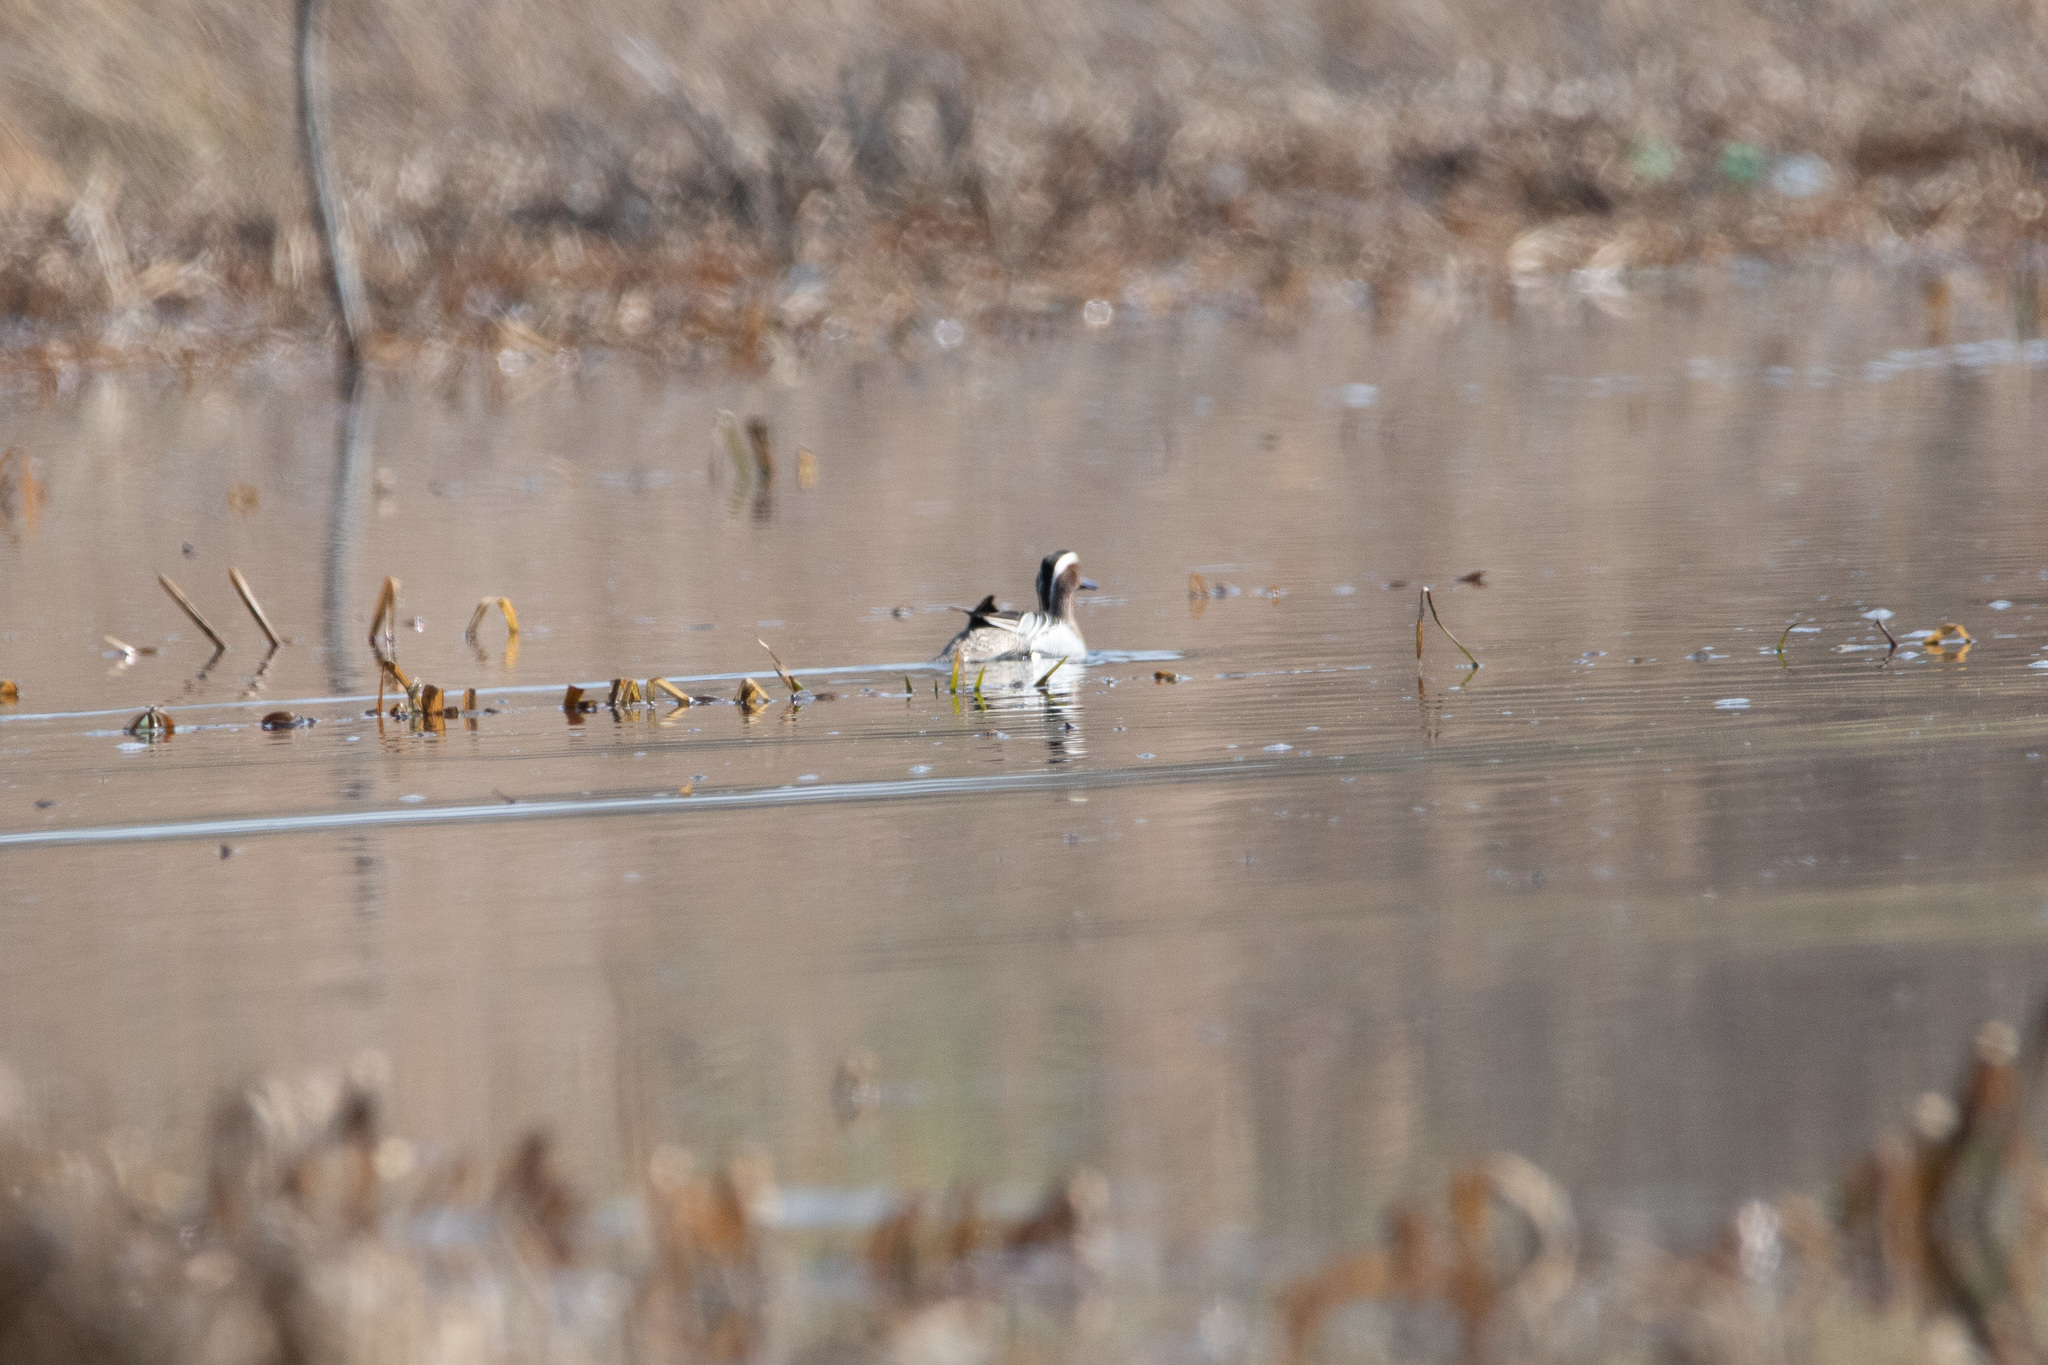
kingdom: Animalia
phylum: Chordata
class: Aves
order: Anseriformes
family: Anatidae
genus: Spatula
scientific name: Spatula querquedula
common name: Garganey
